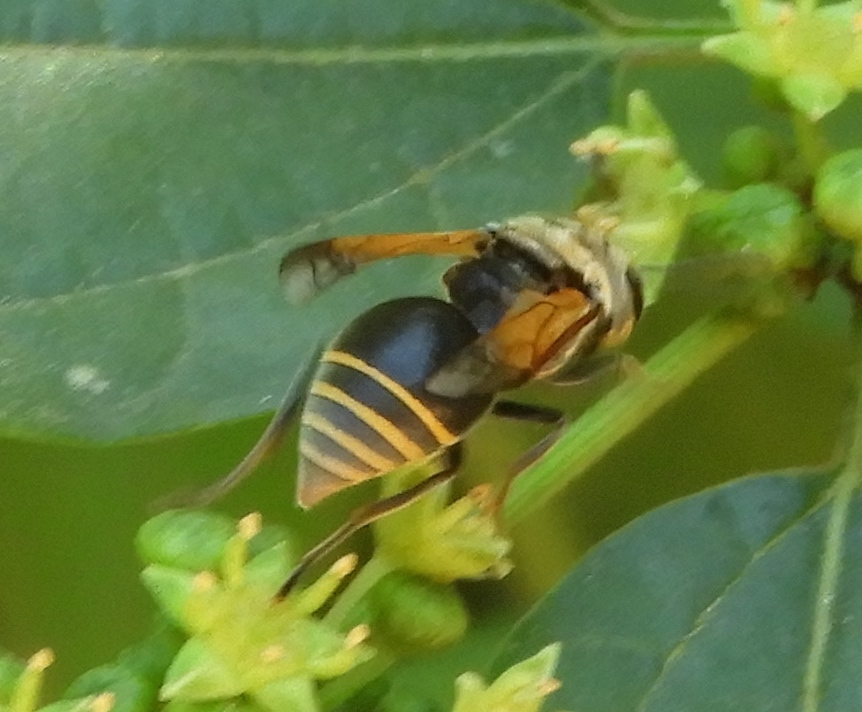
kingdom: Animalia
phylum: Arthropoda
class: Insecta
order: Hymenoptera
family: Vespidae
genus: Brachygastra
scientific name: Brachygastra mellifica
